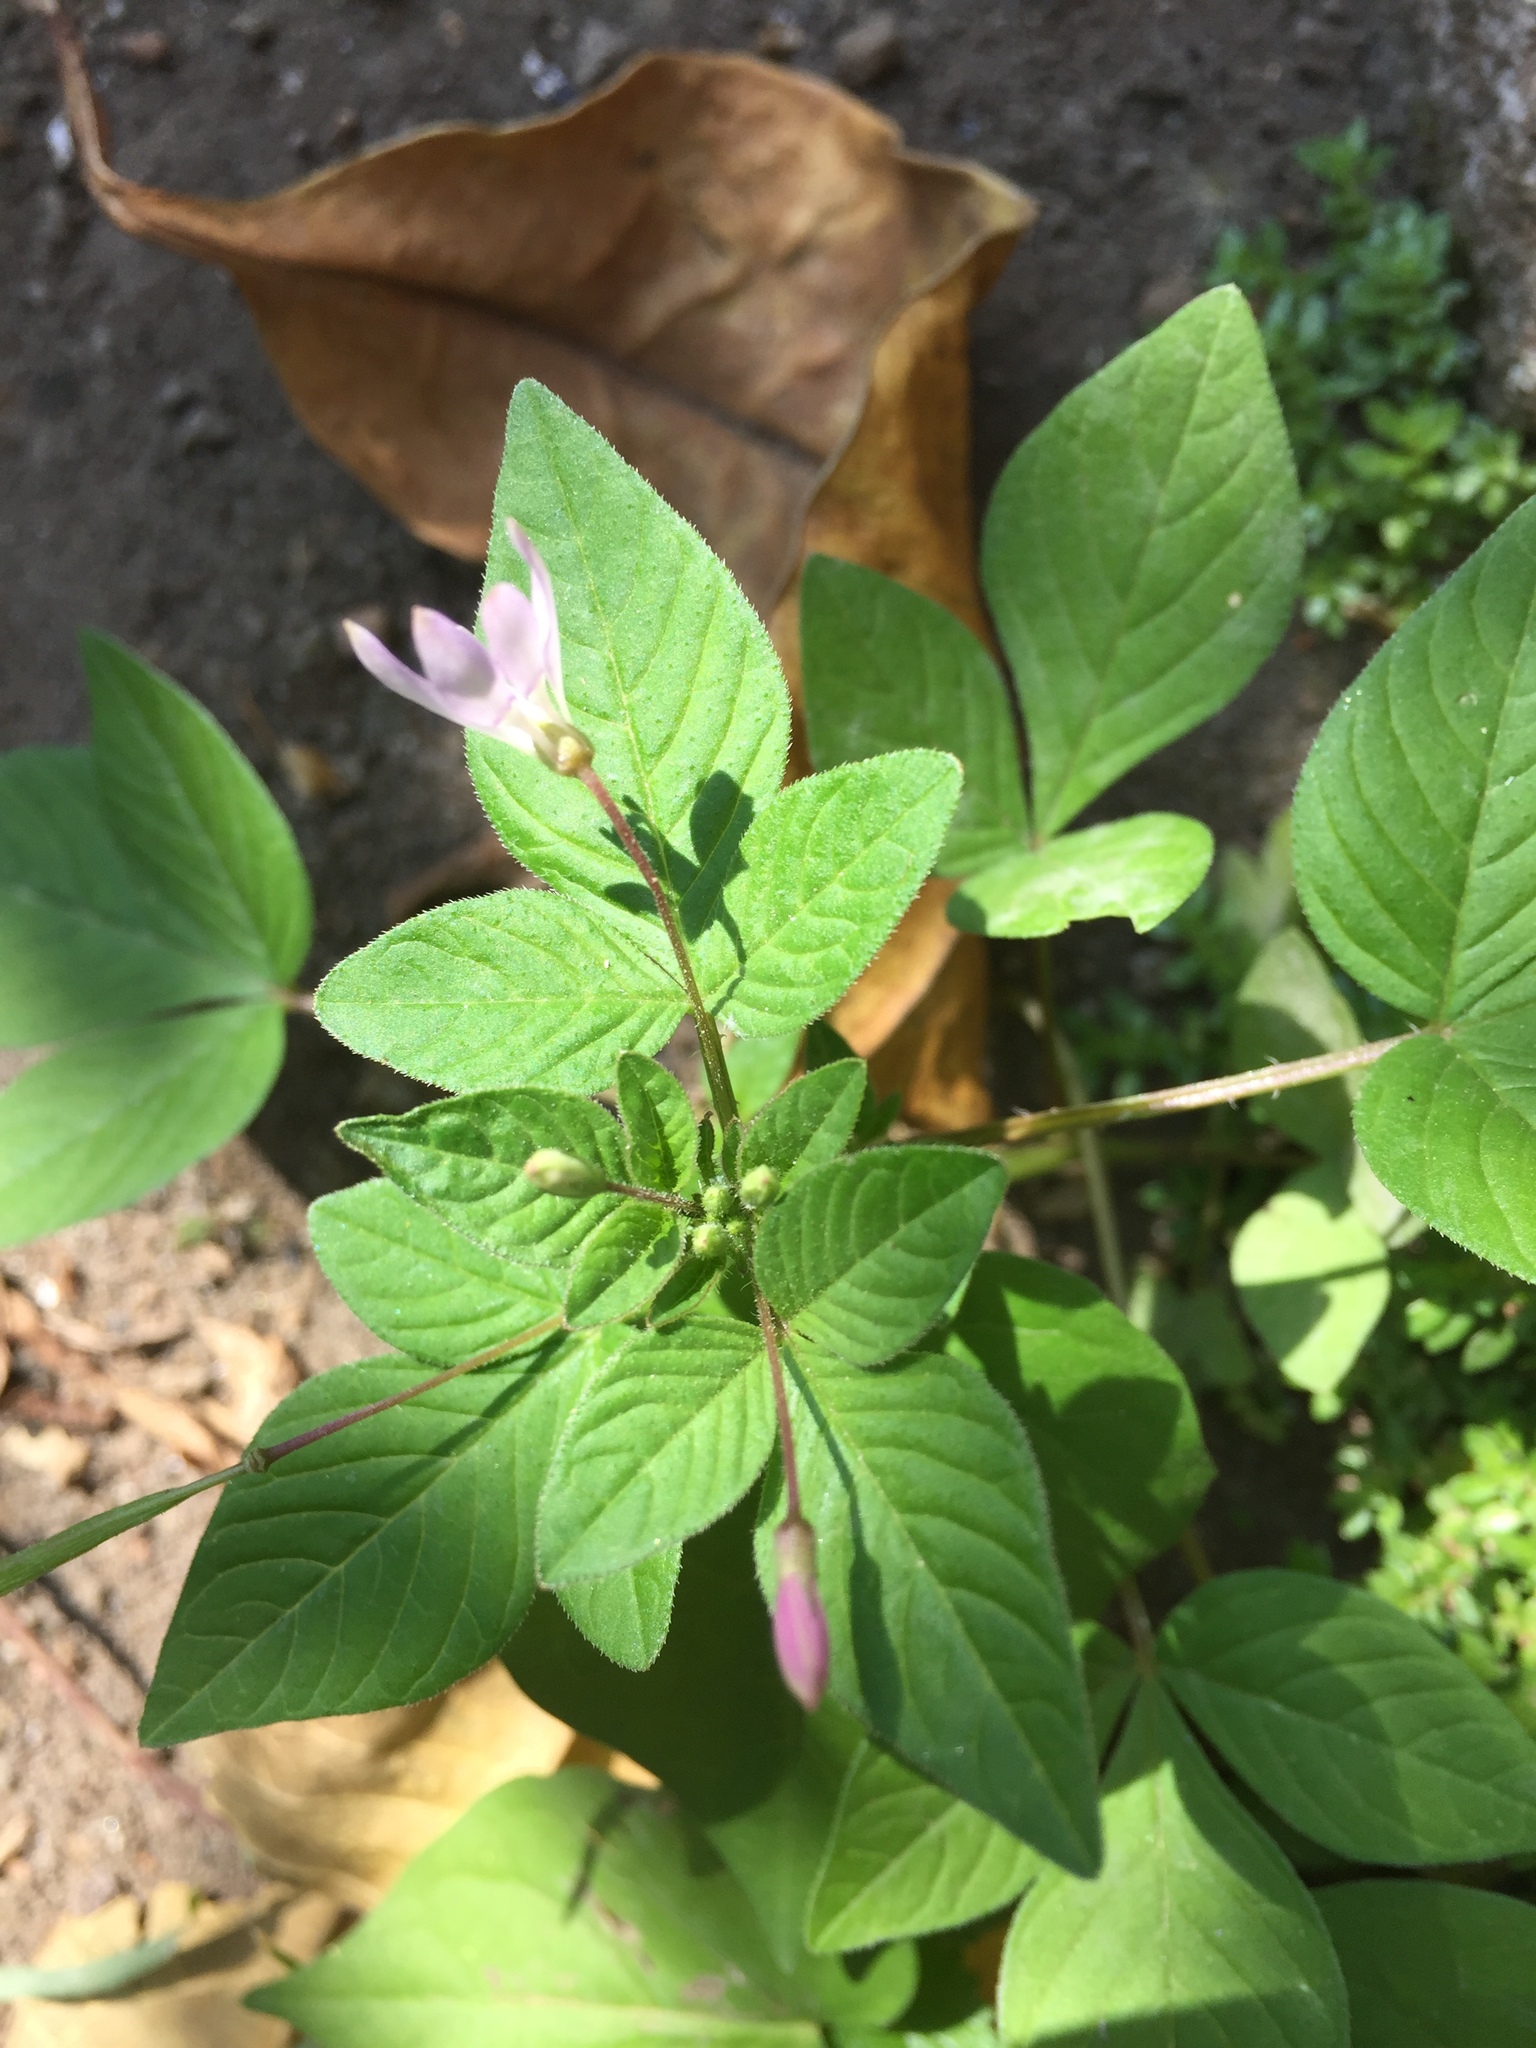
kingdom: Plantae
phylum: Tracheophyta
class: Magnoliopsida
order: Brassicales
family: Cleomaceae
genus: Sieruela
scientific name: Sieruela rutidosperma
